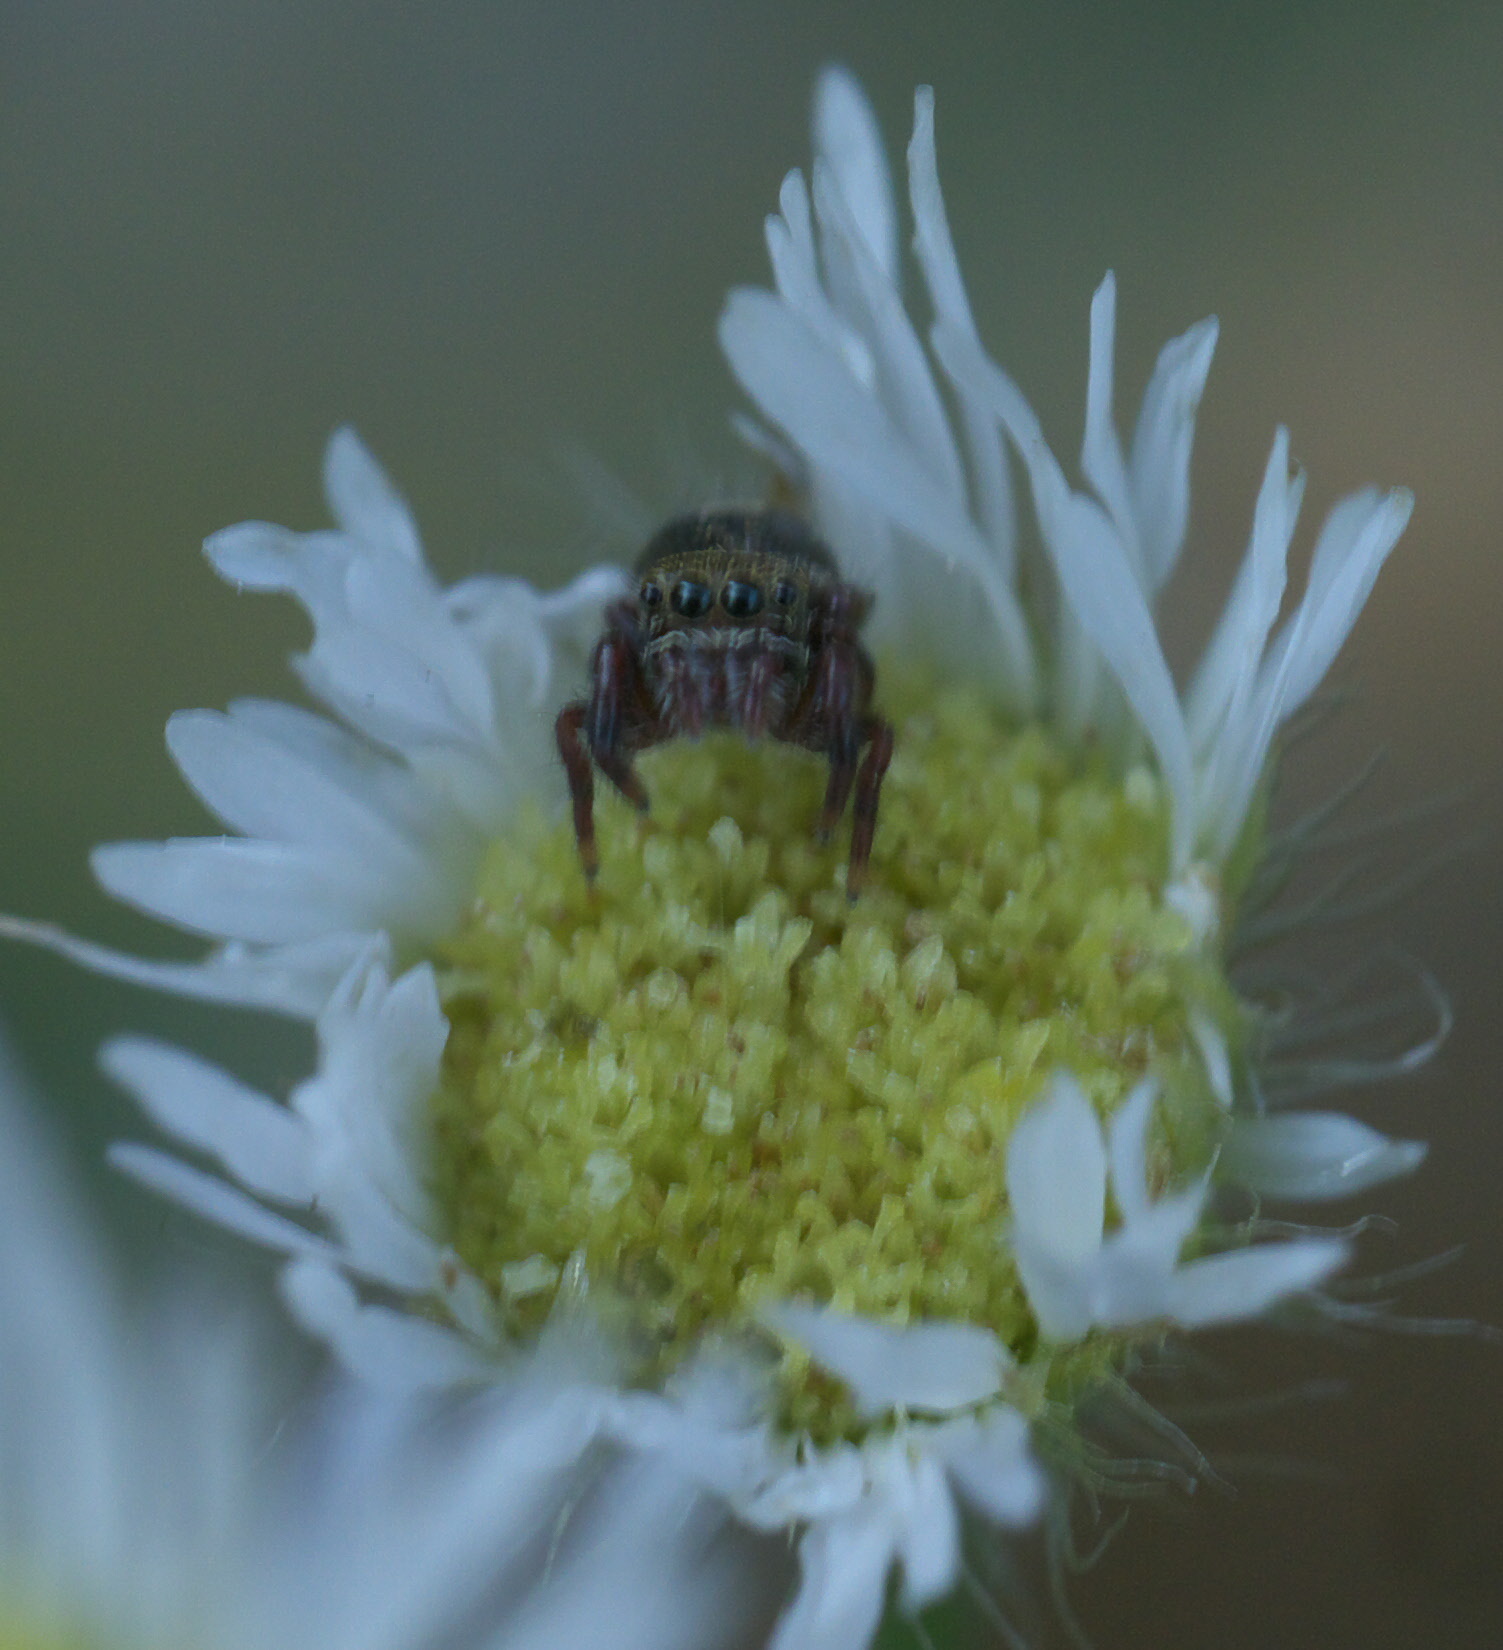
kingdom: Animalia
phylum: Arthropoda
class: Arachnida
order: Araneae
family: Salticidae
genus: Phidippus
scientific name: Phidippus audax
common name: Bold jumper
